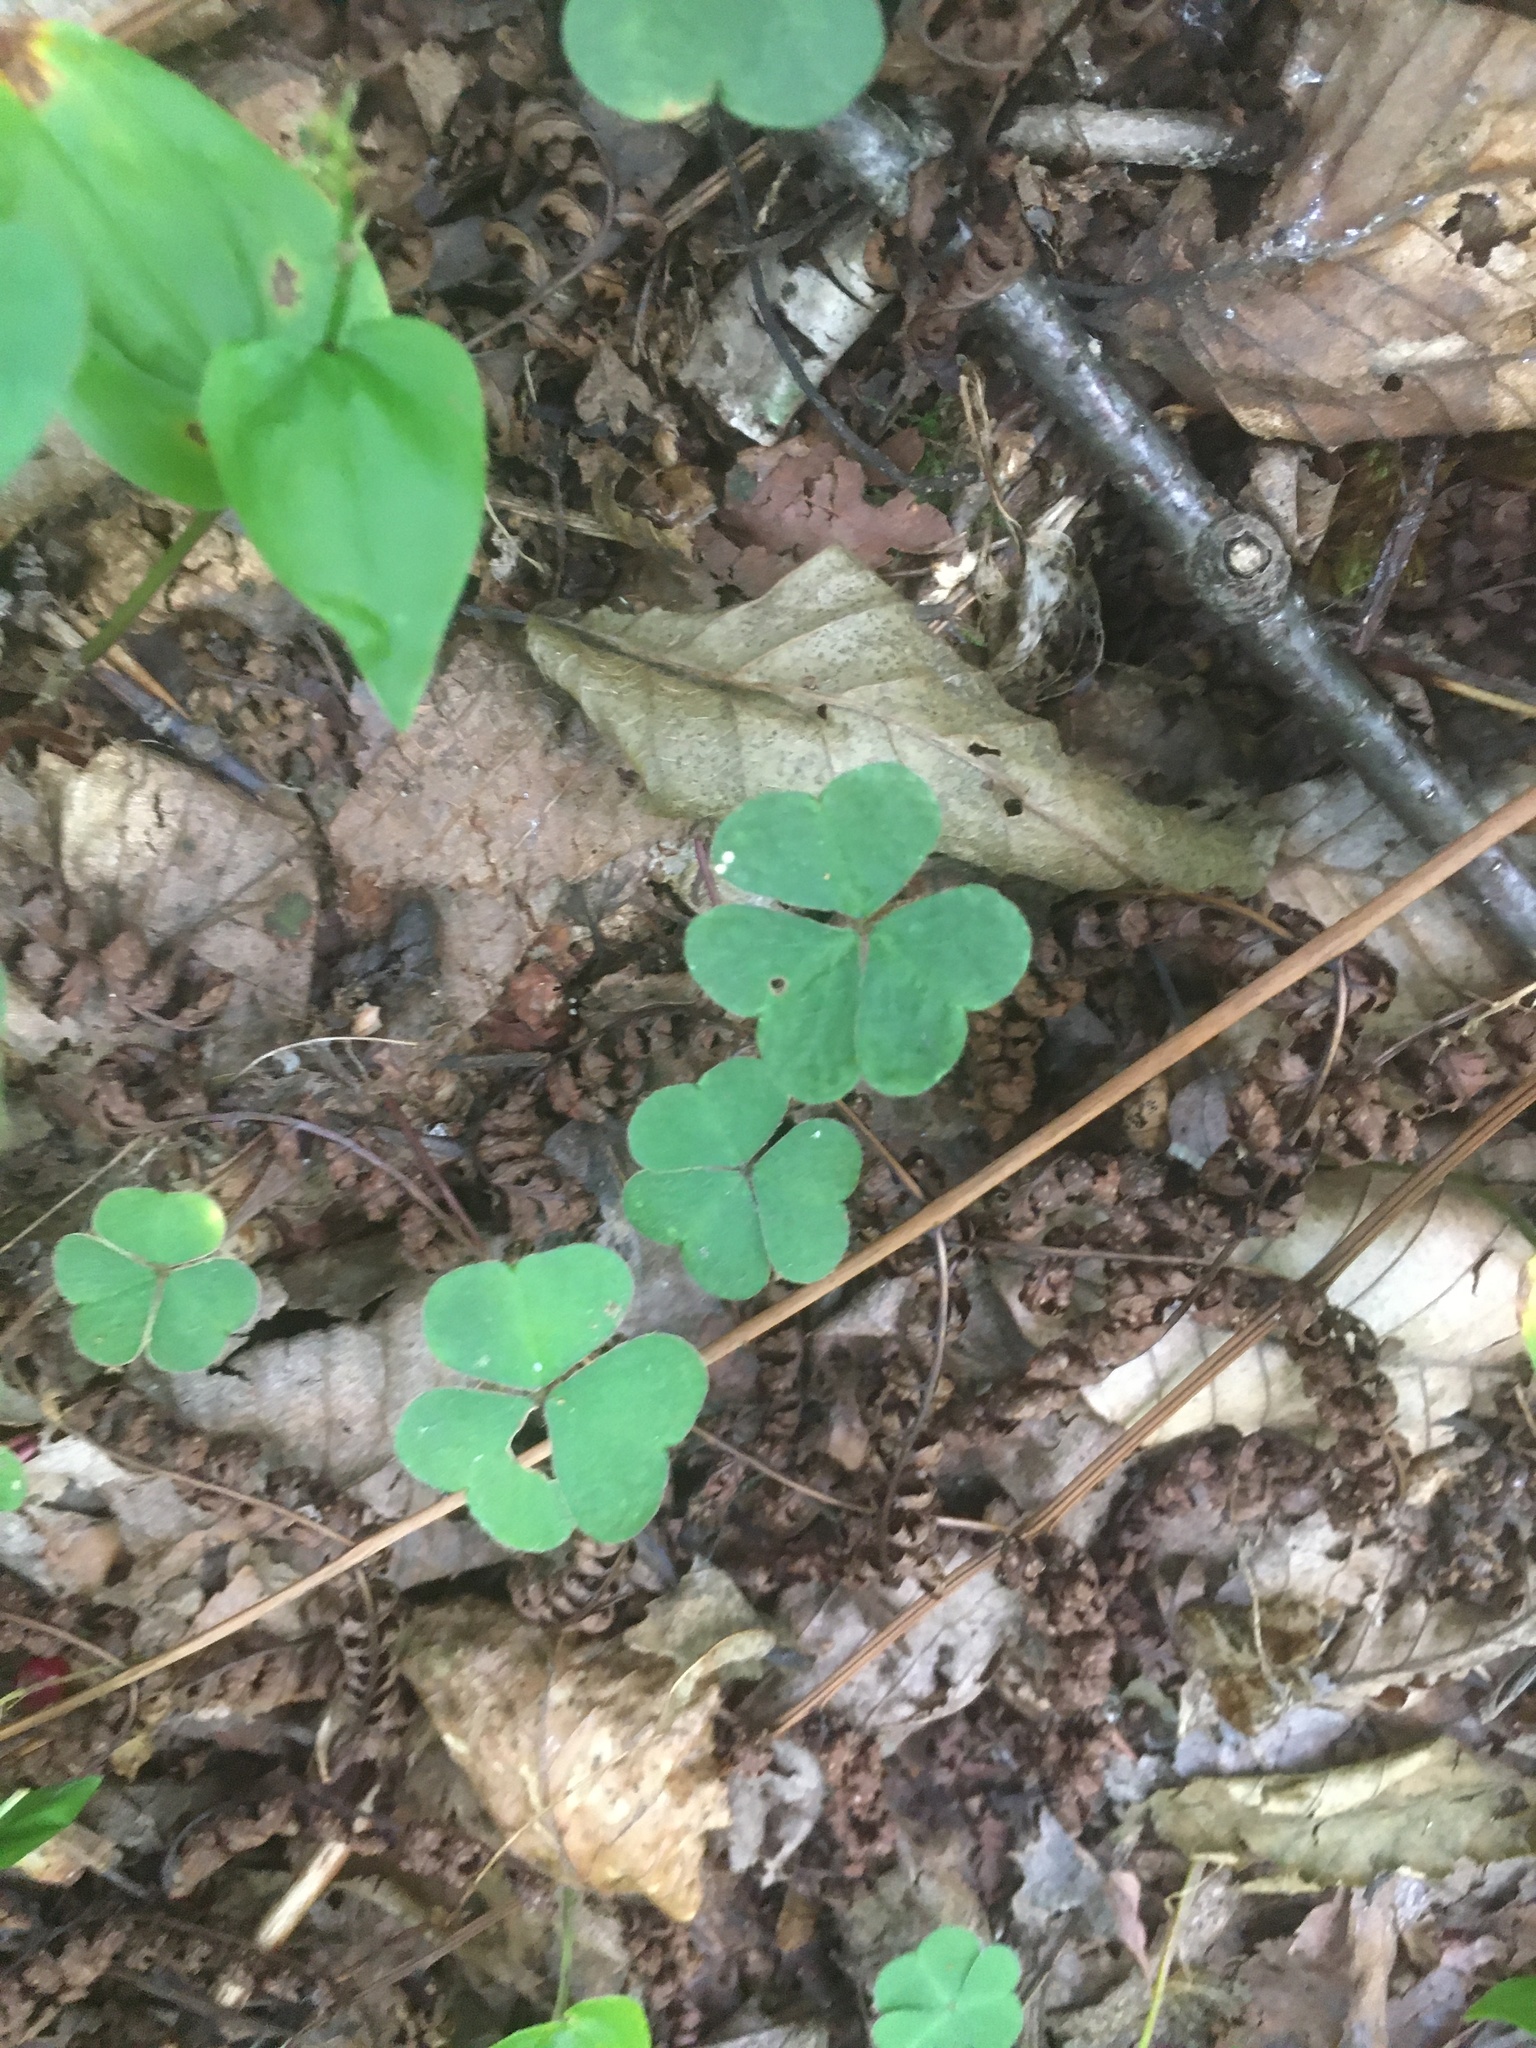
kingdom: Plantae
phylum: Tracheophyta
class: Magnoliopsida
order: Oxalidales
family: Oxalidaceae
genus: Oxalis
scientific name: Oxalis montana
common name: American wood-sorrel
